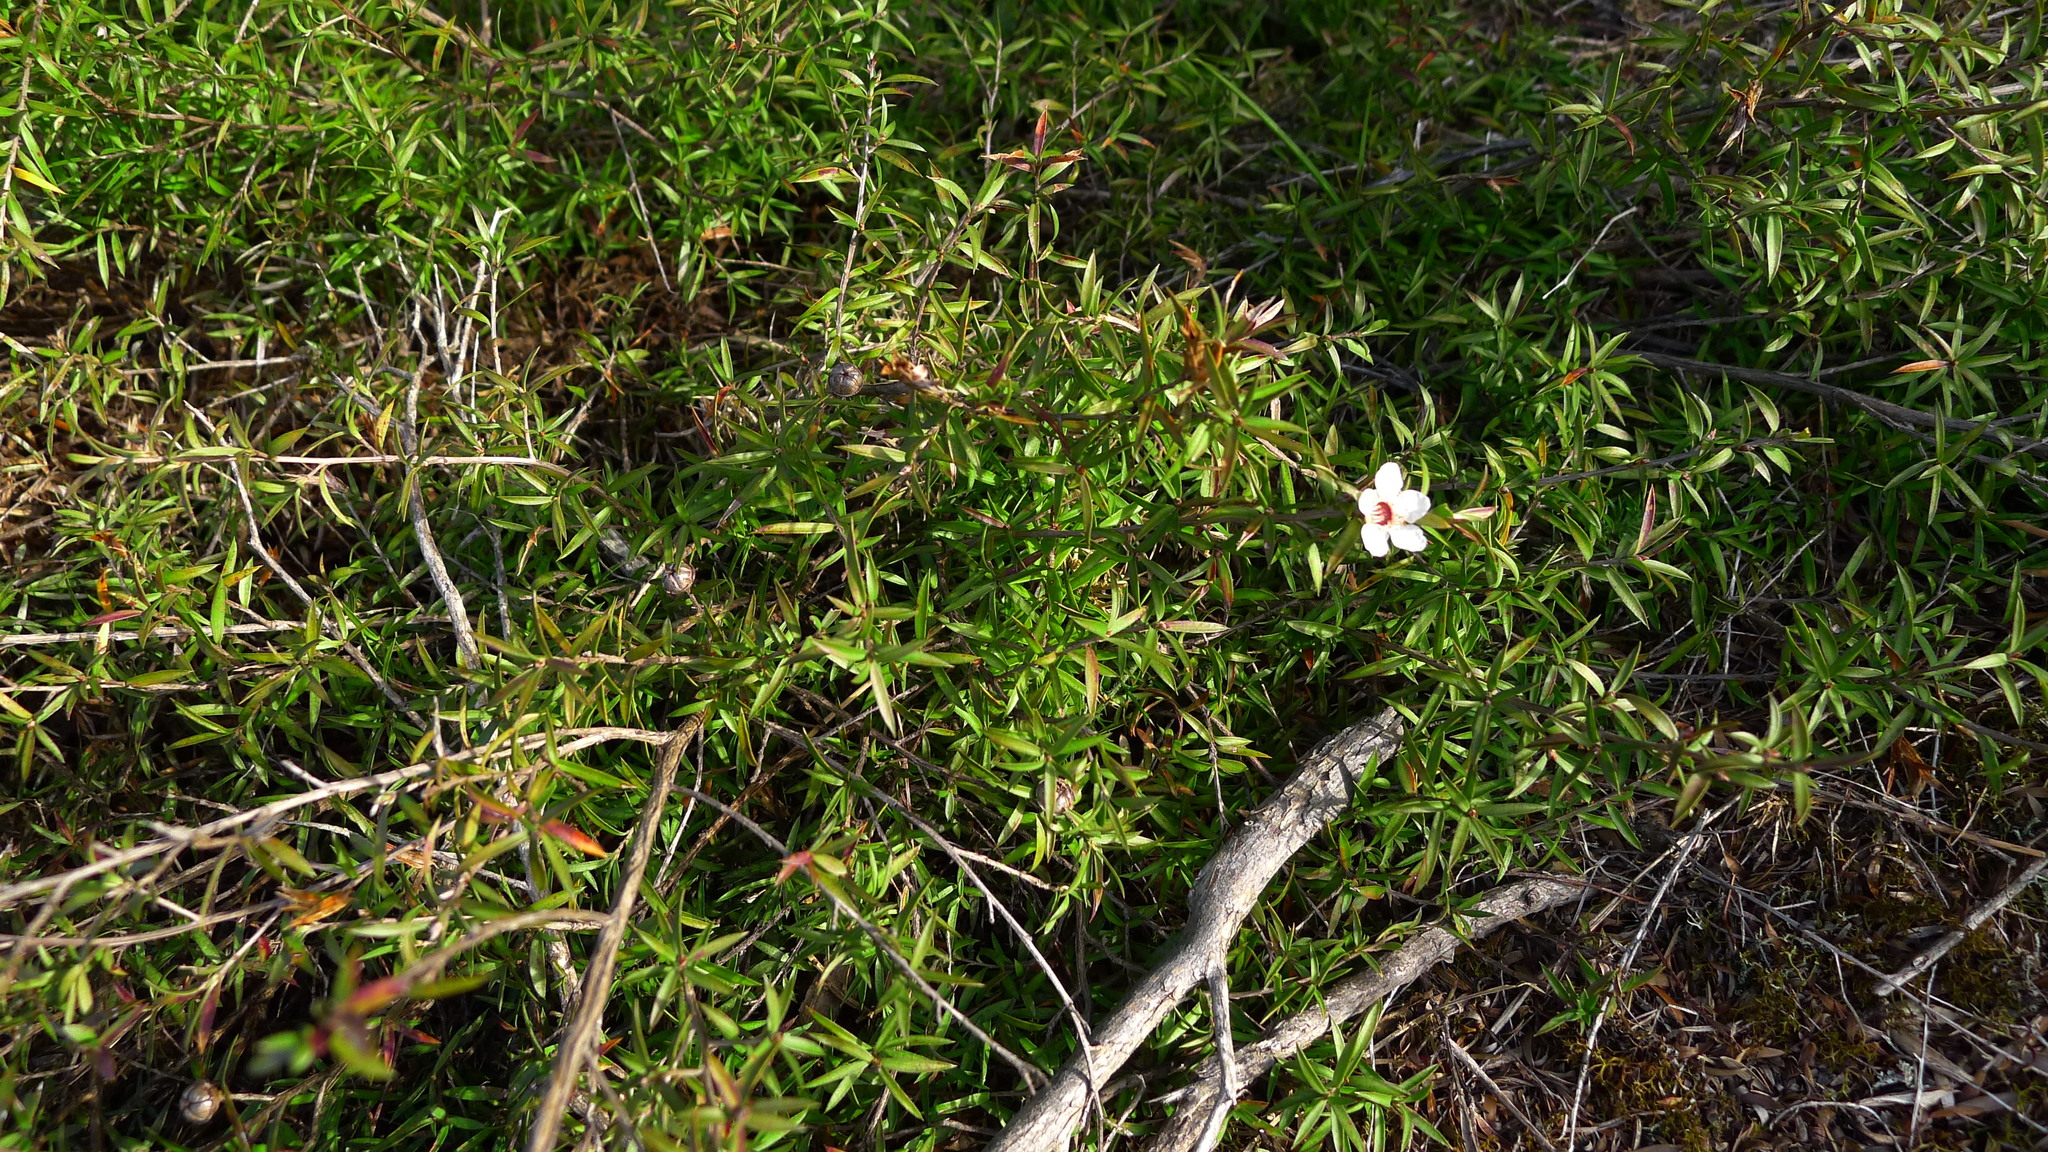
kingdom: Plantae
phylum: Tracheophyta
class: Magnoliopsida
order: Myrtales
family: Myrtaceae
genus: Leptospermum
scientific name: Leptospermum scoparium
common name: Broom tea-tree
